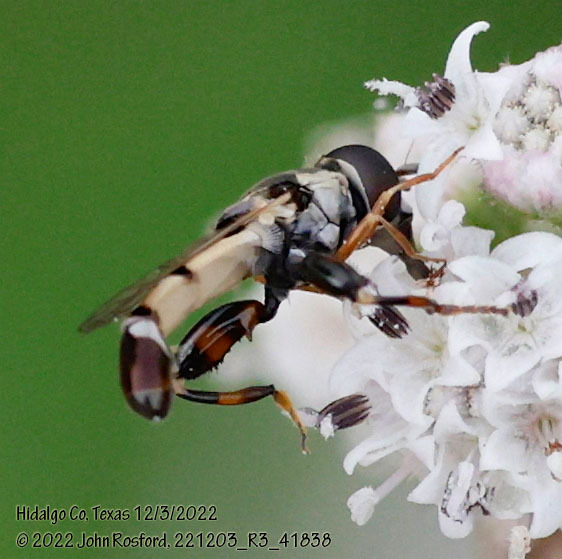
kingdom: Animalia
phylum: Arthropoda
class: Insecta
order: Diptera
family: Syrphidae
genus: Syritta
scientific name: Syritta flaviventris
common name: Syrphid fly
